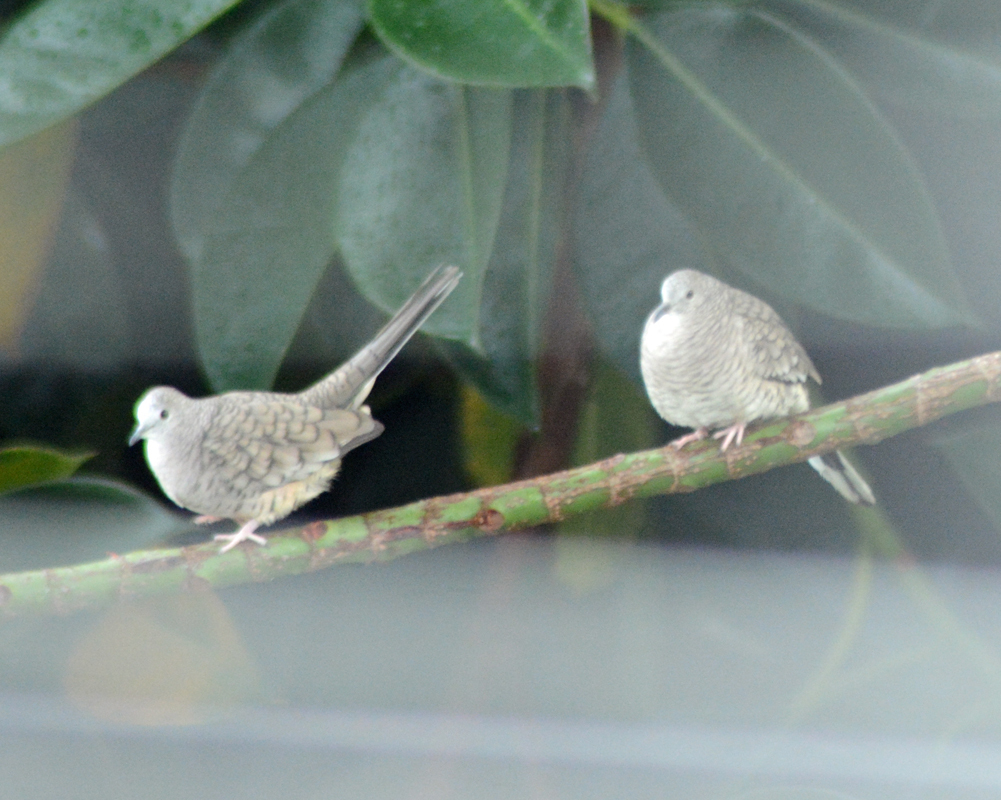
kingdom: Animalia
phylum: Chordata
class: Aves
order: Columbiformes
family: Columbidae
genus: Columbina
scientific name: Columbina inca
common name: Inca dove
